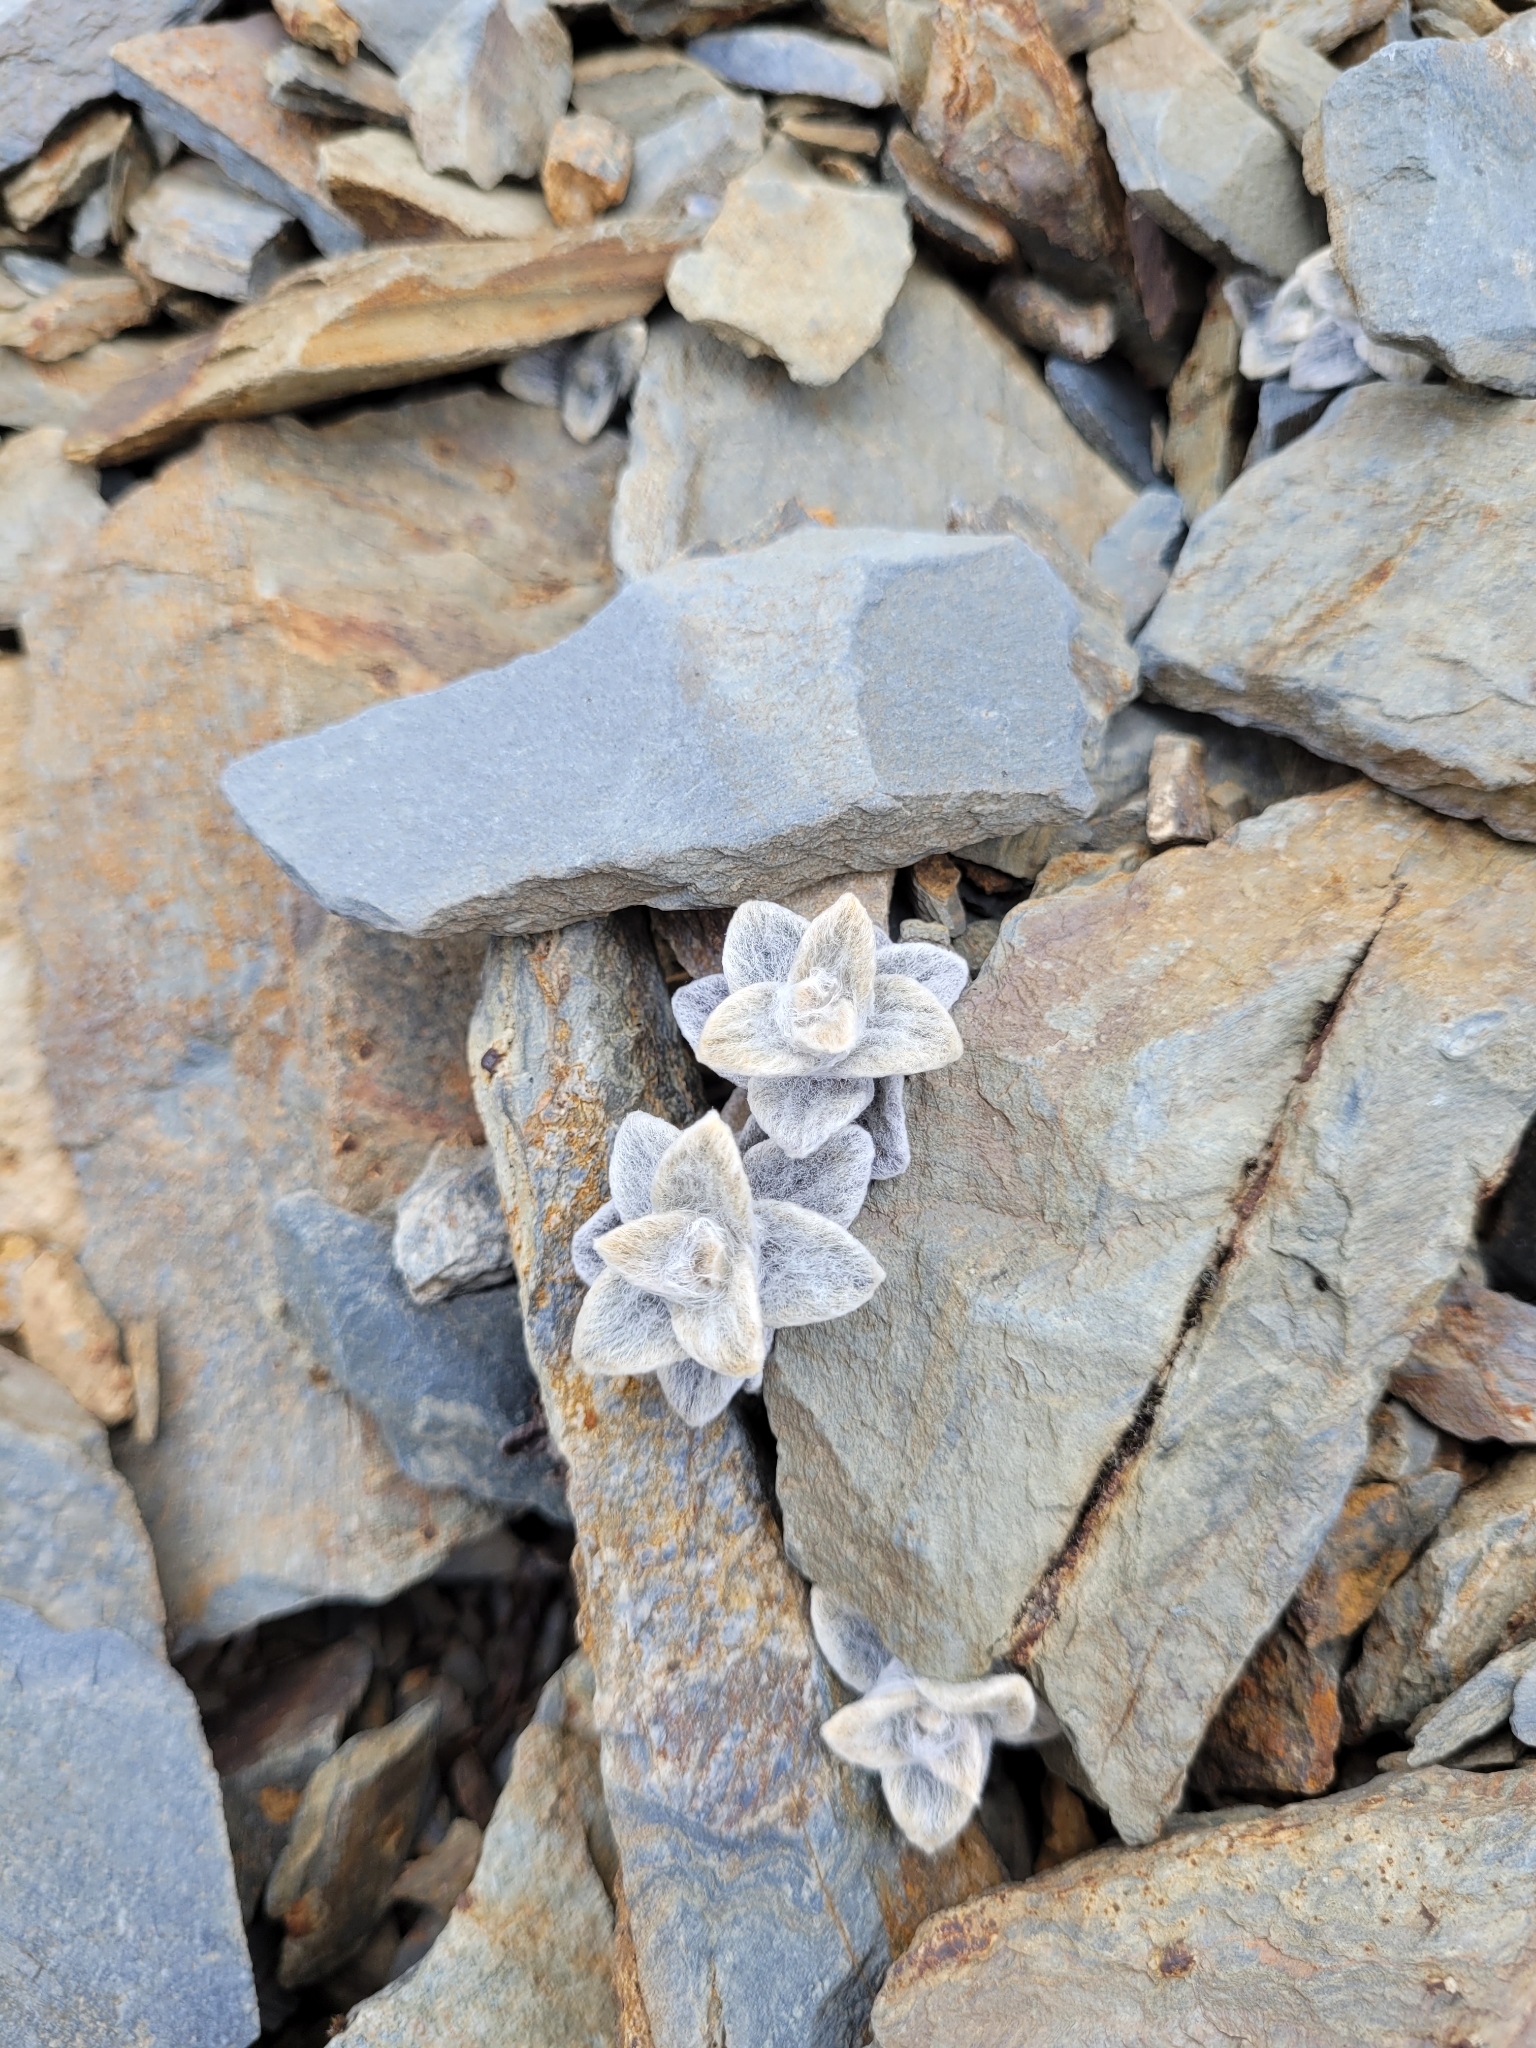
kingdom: Plantae
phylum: Tracheophyta
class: Magnoliopsida
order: Asterales
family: Asteraceae
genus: Haastia
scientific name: Haastia sinclairii
